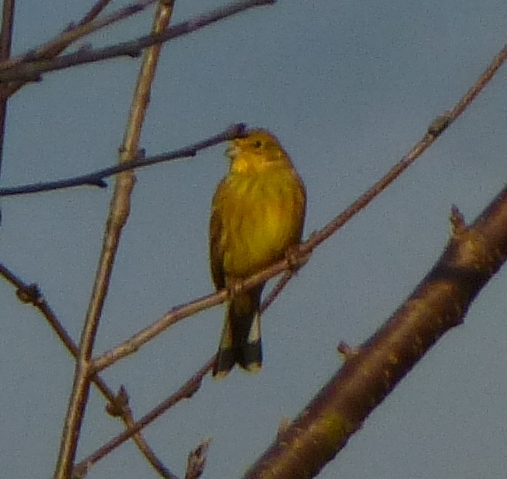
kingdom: Animalia
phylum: Chordata
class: Aves
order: Passeriformes
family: Emberizidae
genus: Emberiza
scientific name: Emberiza citrinella
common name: Yellowhammer
